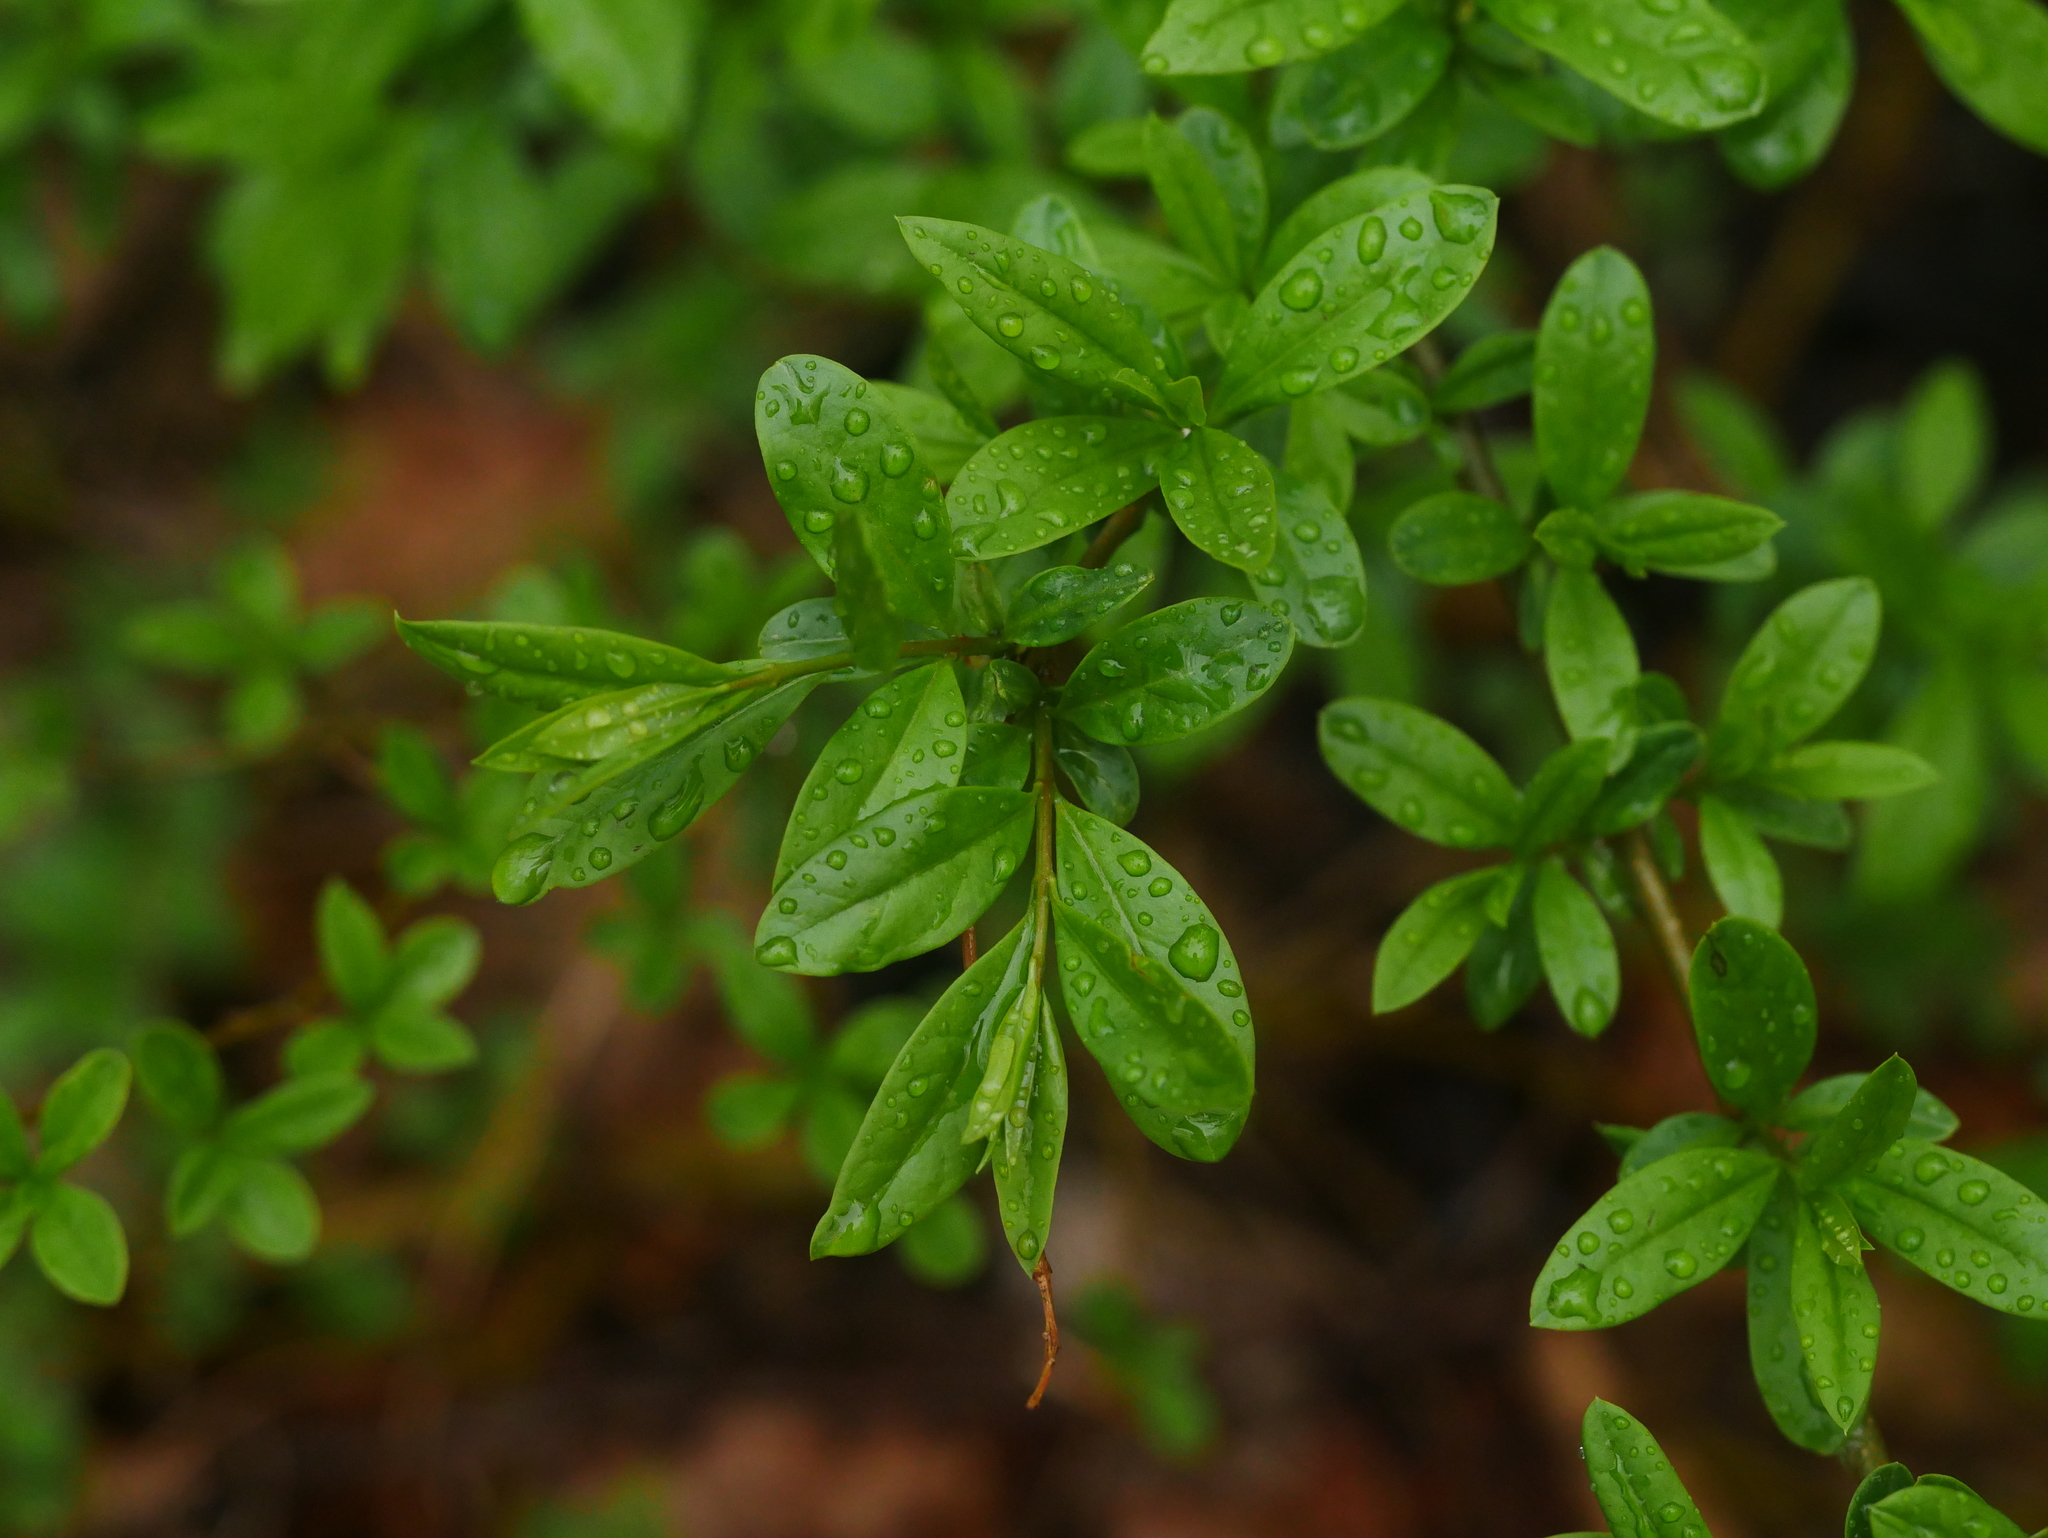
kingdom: Plantae
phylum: Tracheophyta
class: Magnoliopsida
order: Lamiales
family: Oleaceae
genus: Ligustrum
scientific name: Ligustrum vulgare
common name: Wild privet
